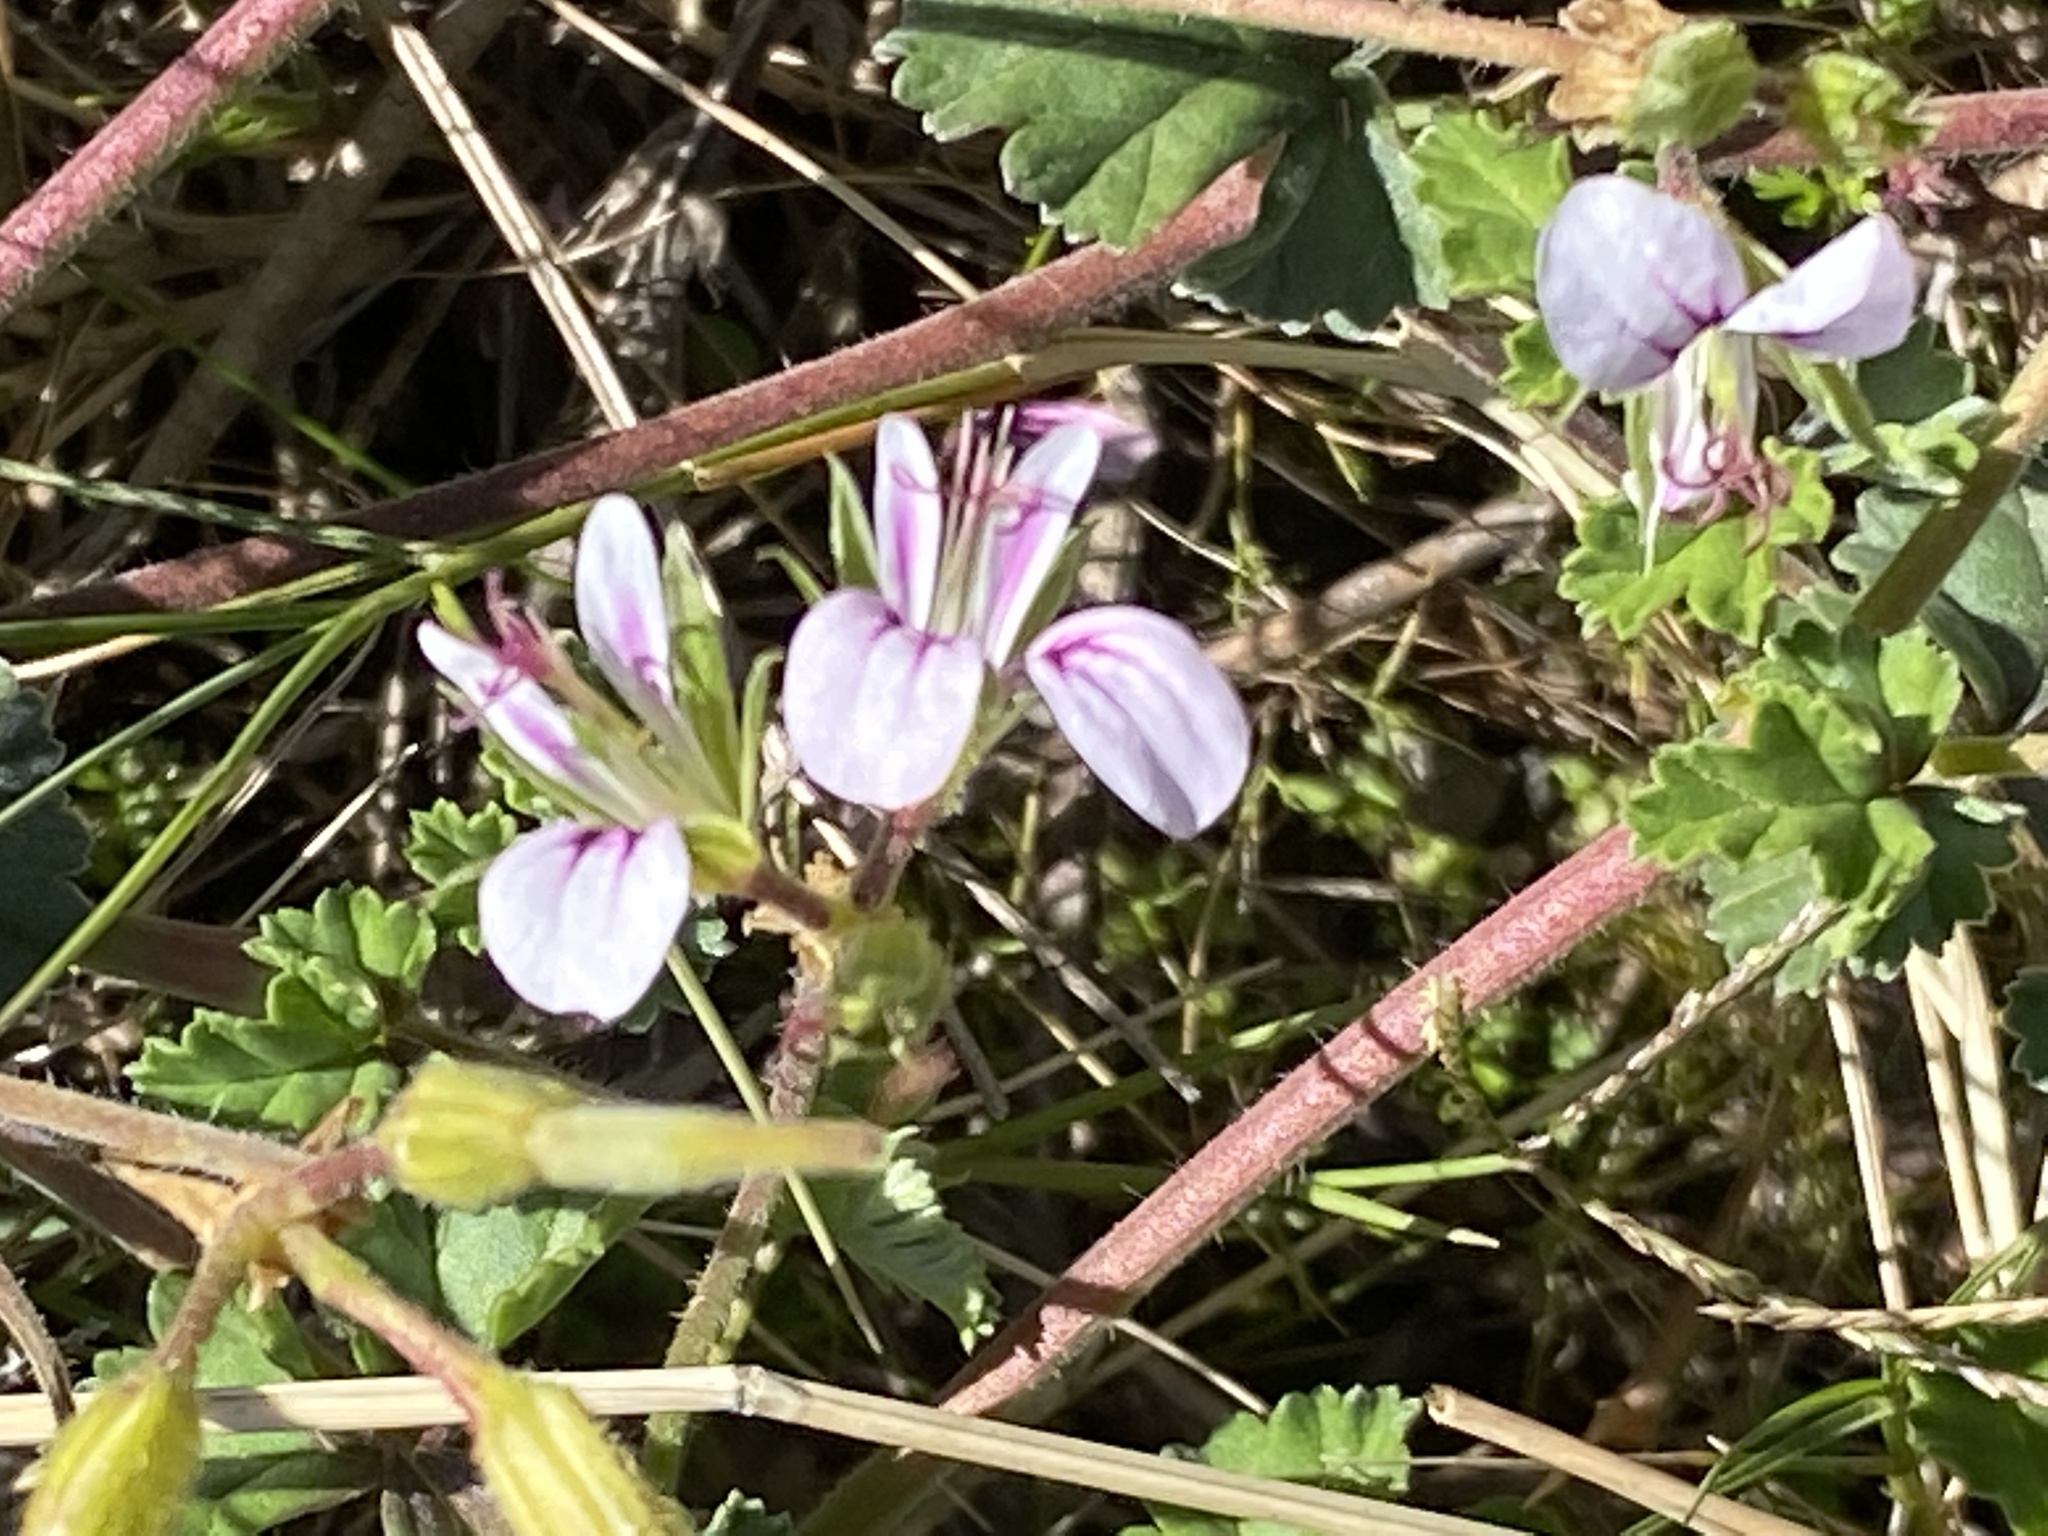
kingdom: Plantae
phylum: Tracheophyta
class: Magnoliopsida
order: Geraniales
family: Geraniaceae
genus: Pelargonium
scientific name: Pelargonium candicans
